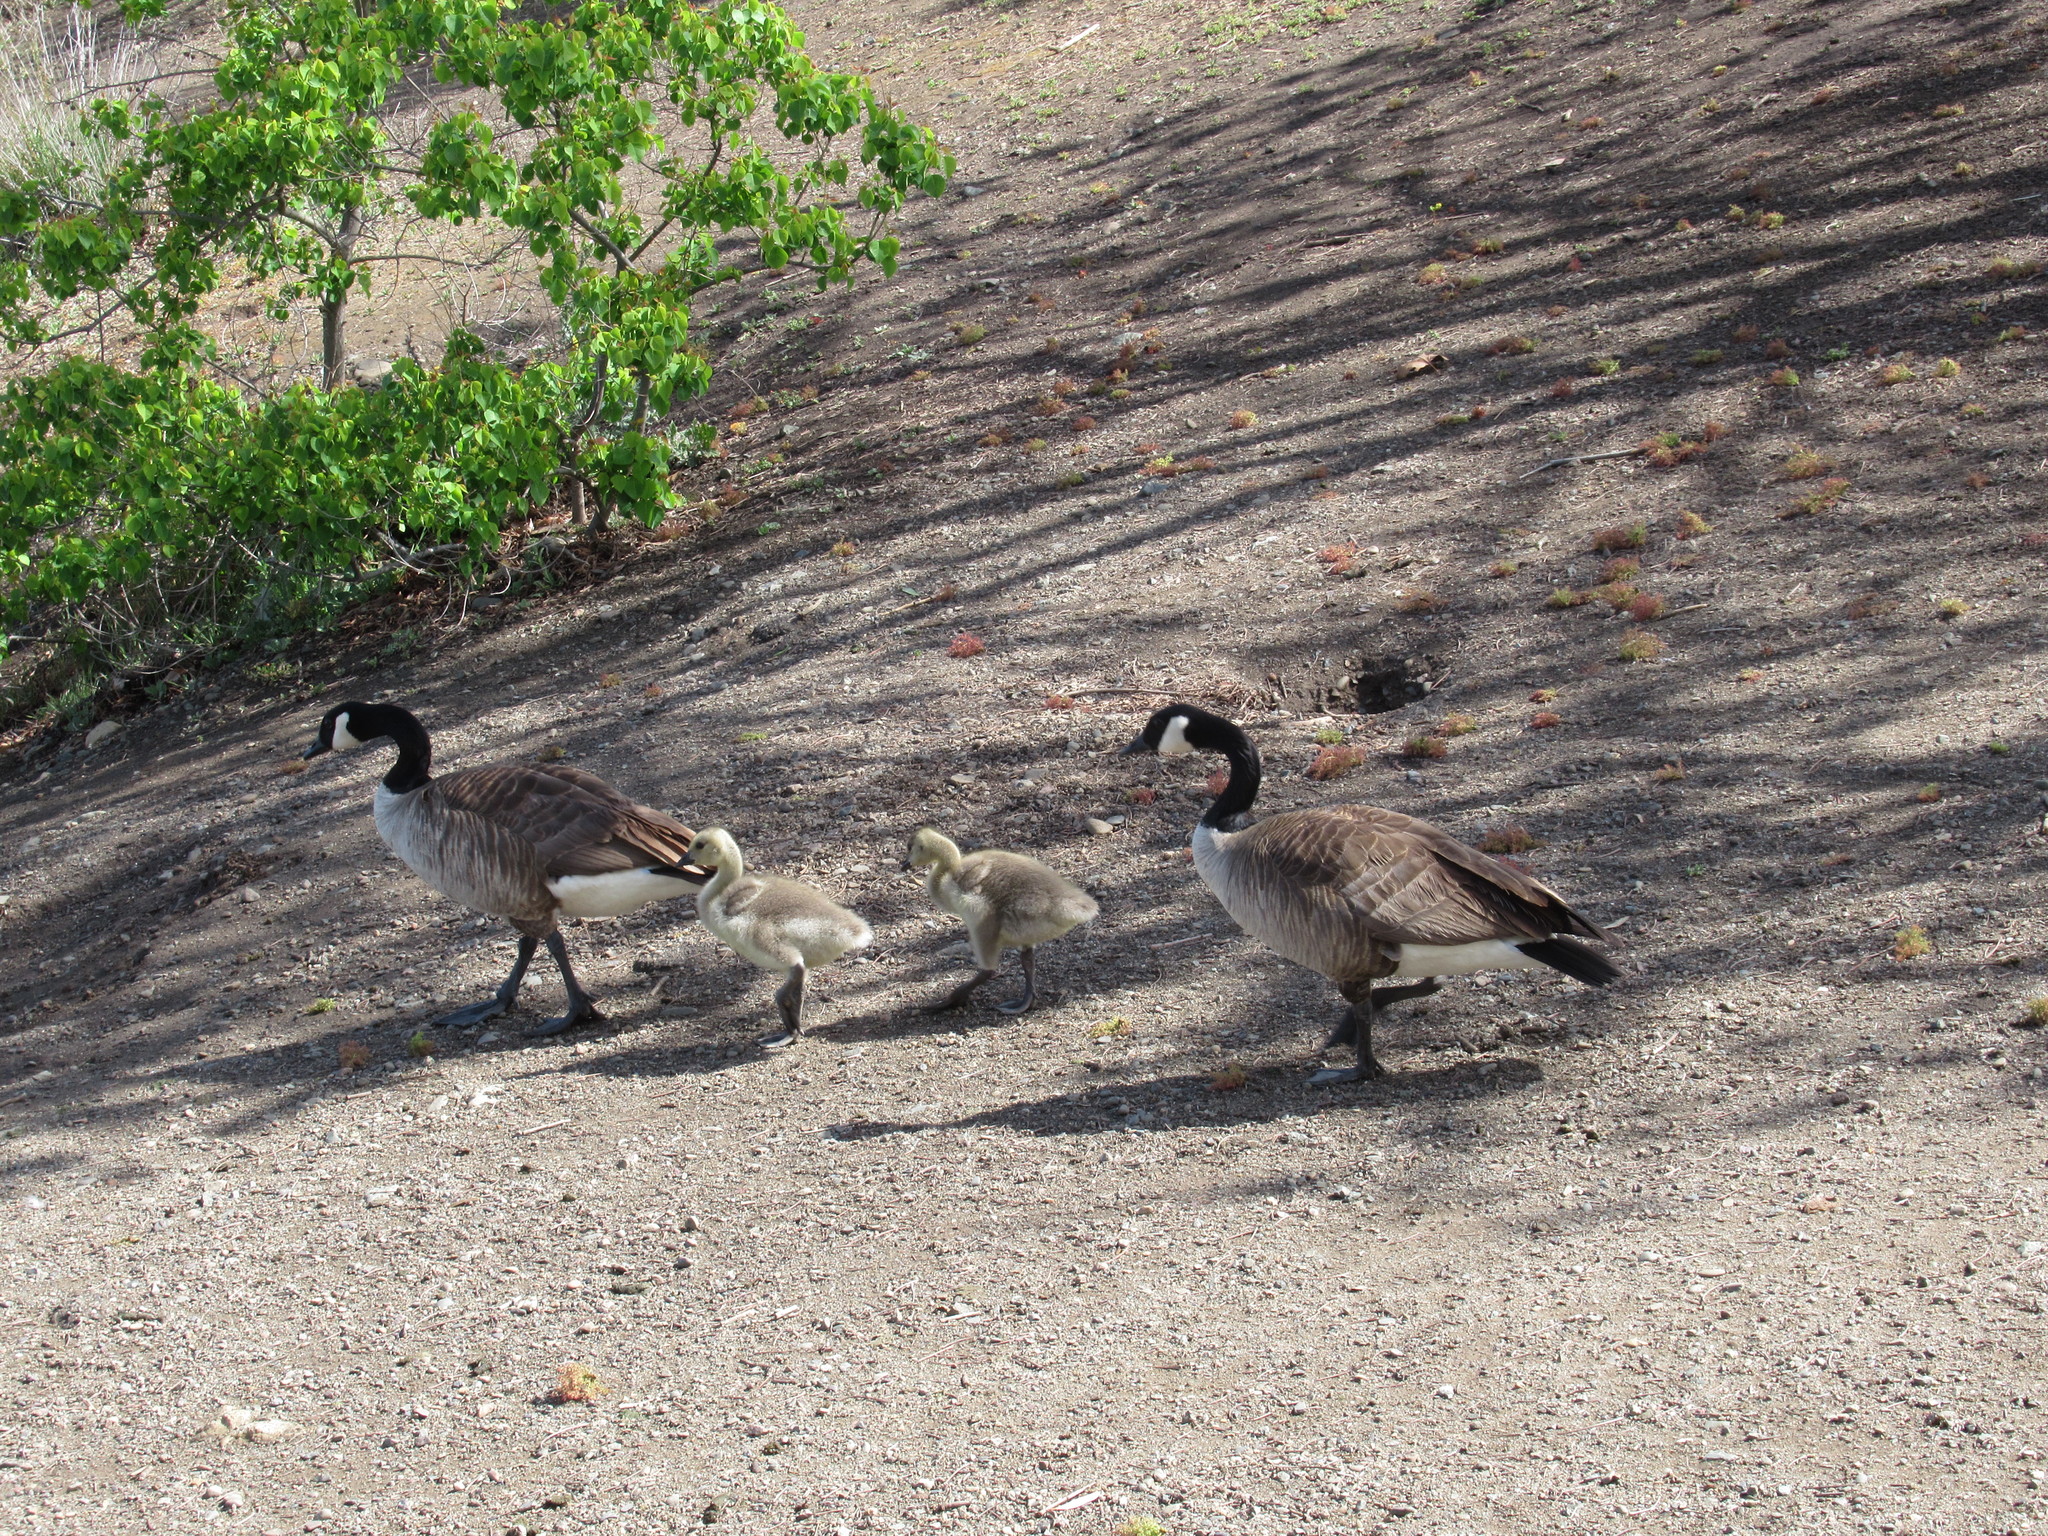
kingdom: Animalia
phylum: Chordata
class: Aves
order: Anseriformes
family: Anatidae
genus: Branta
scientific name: Branta canadensis
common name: Canada goose
